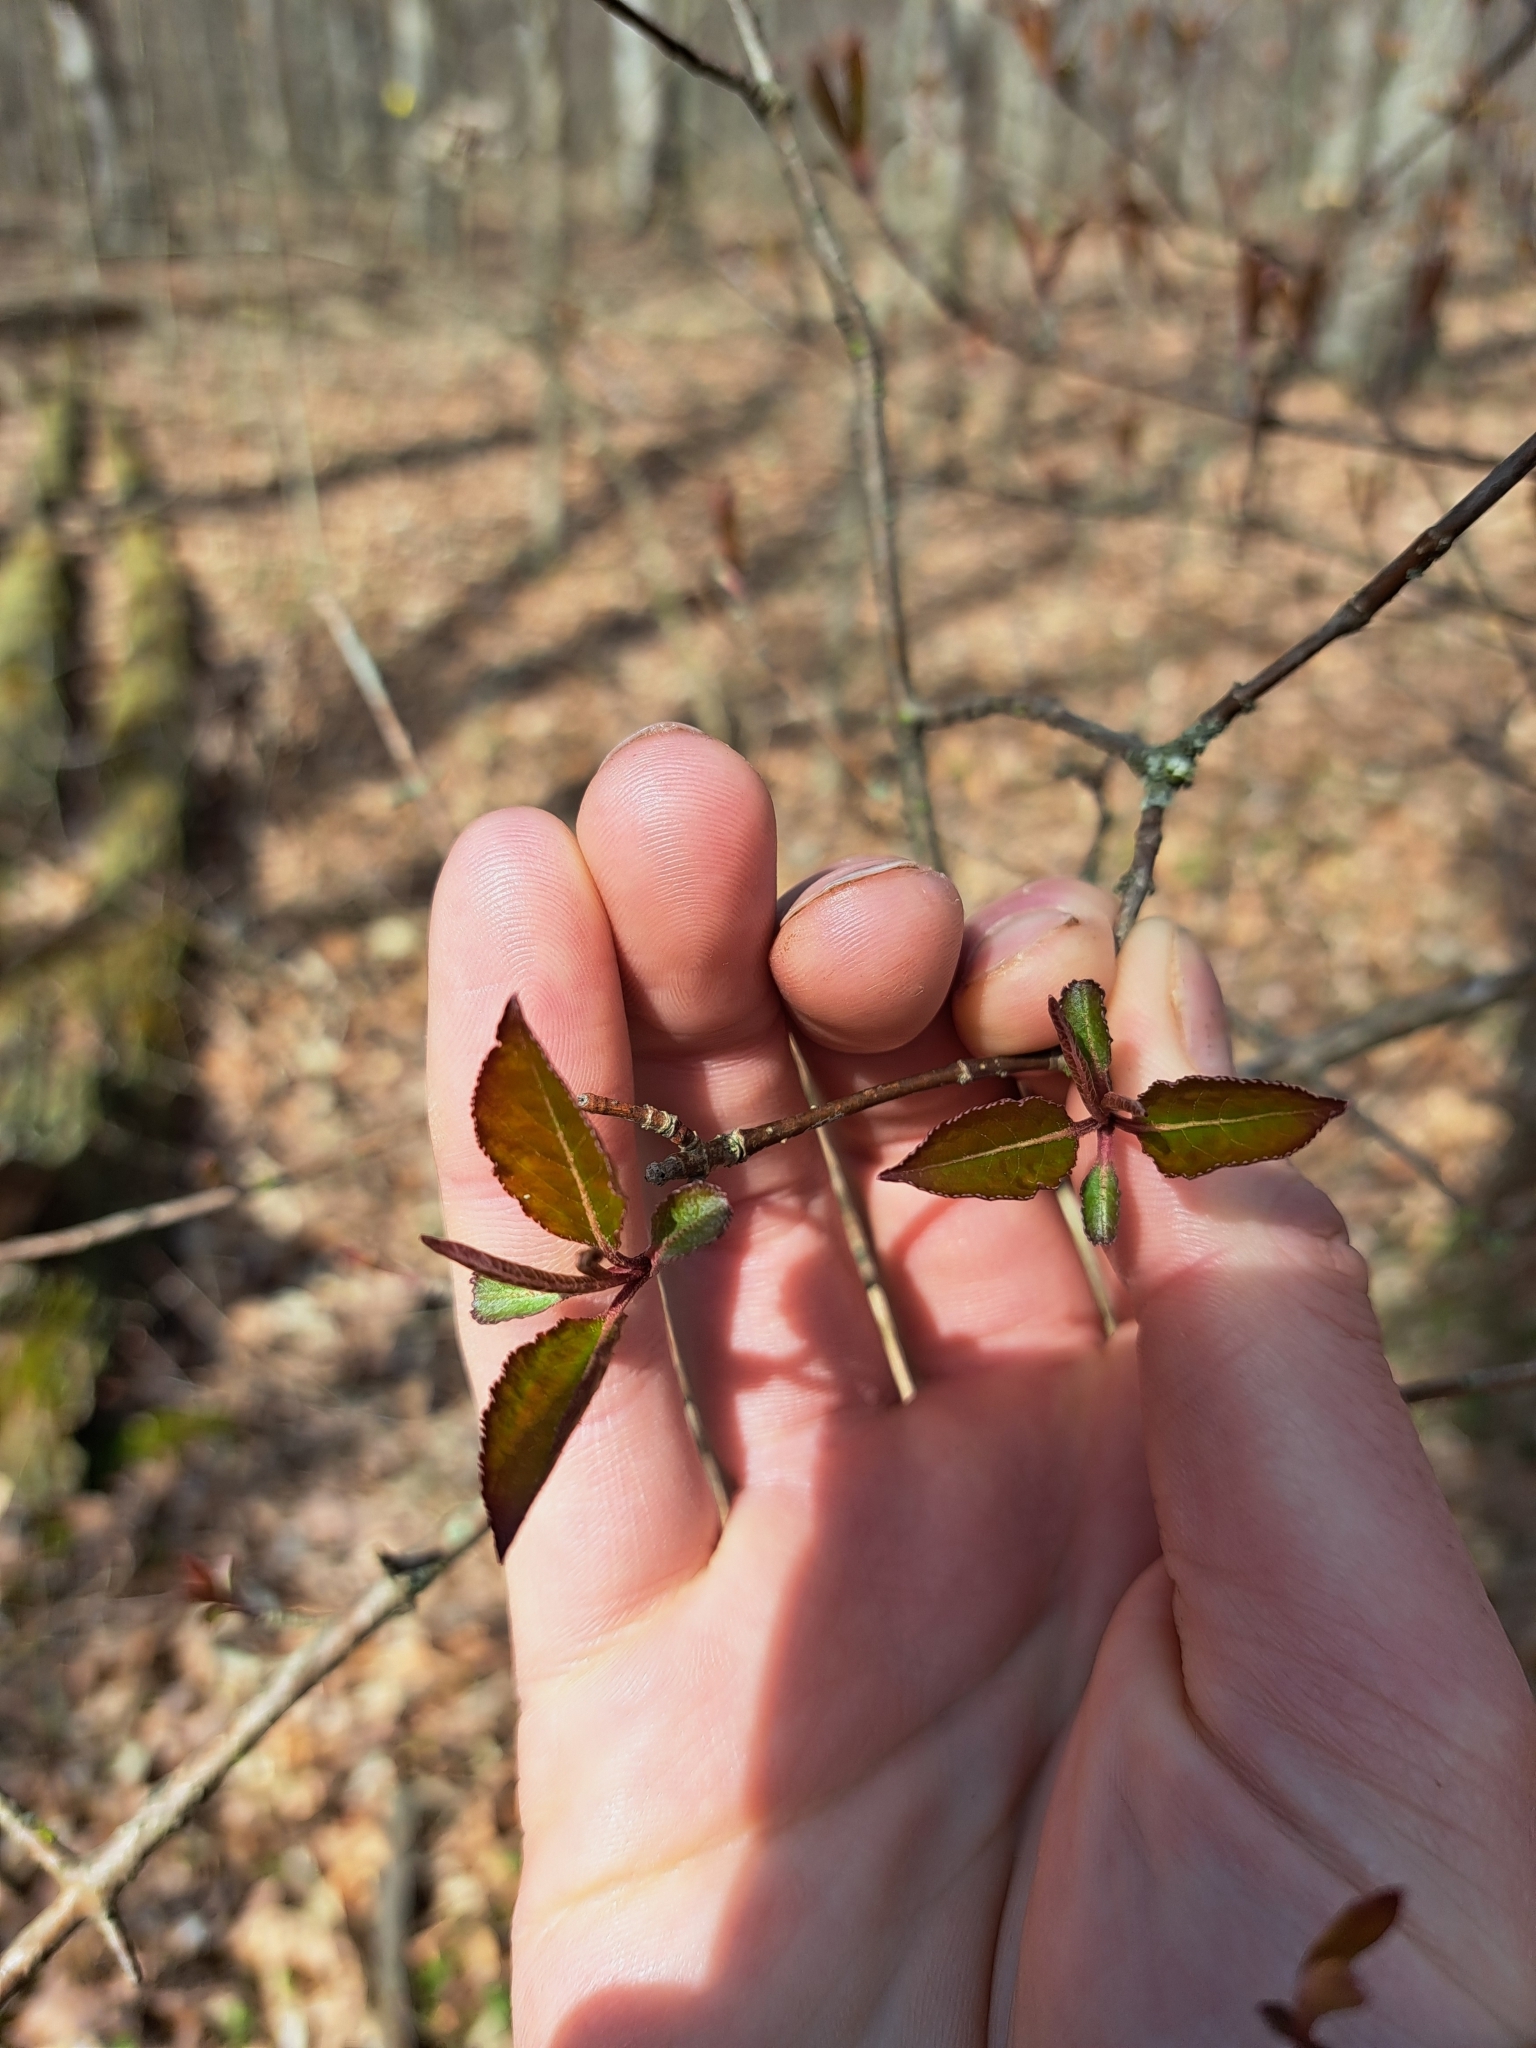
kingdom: Plantae
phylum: Tracheophyta
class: Magnoliopsida
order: Dipsacales
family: Viburnaceae
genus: Viburnum
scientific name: Viburnum prunifolium
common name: Black haw
